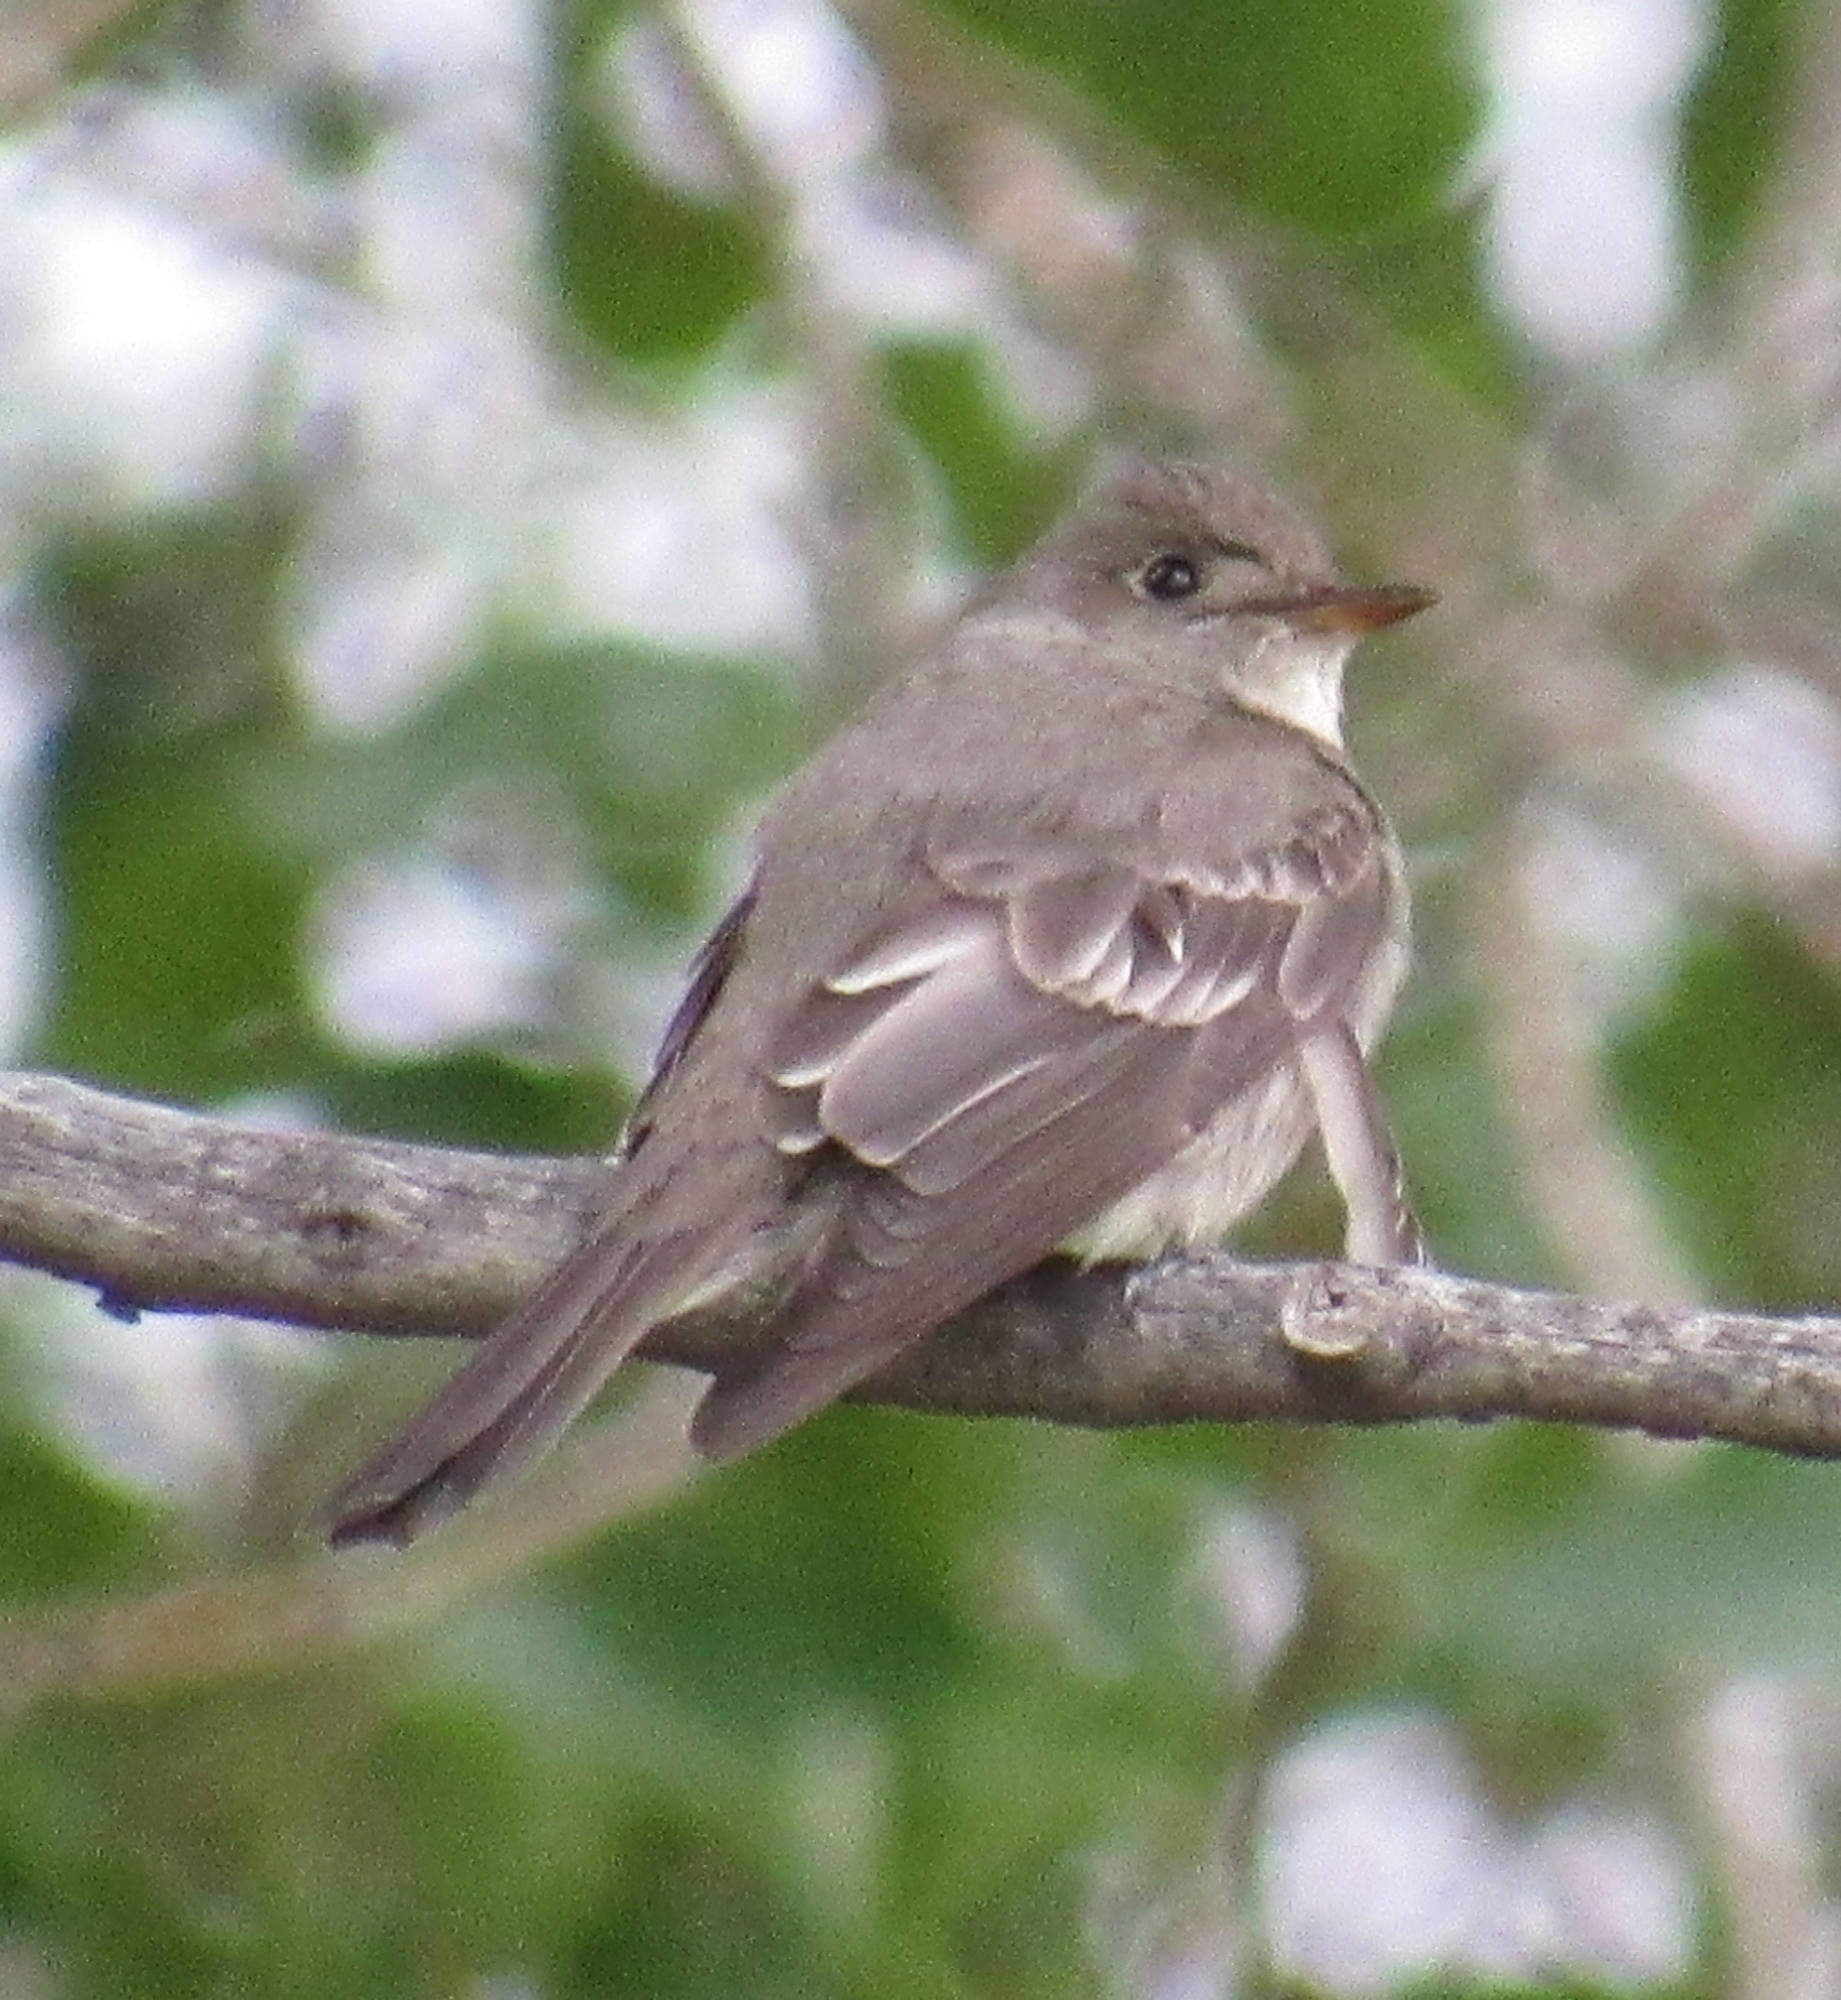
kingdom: Animalia
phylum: Chordata
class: Aves
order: Passeriformes
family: Tyrannidae
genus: Contopus
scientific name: Contopus sordidulus
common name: Western wood-pewee
